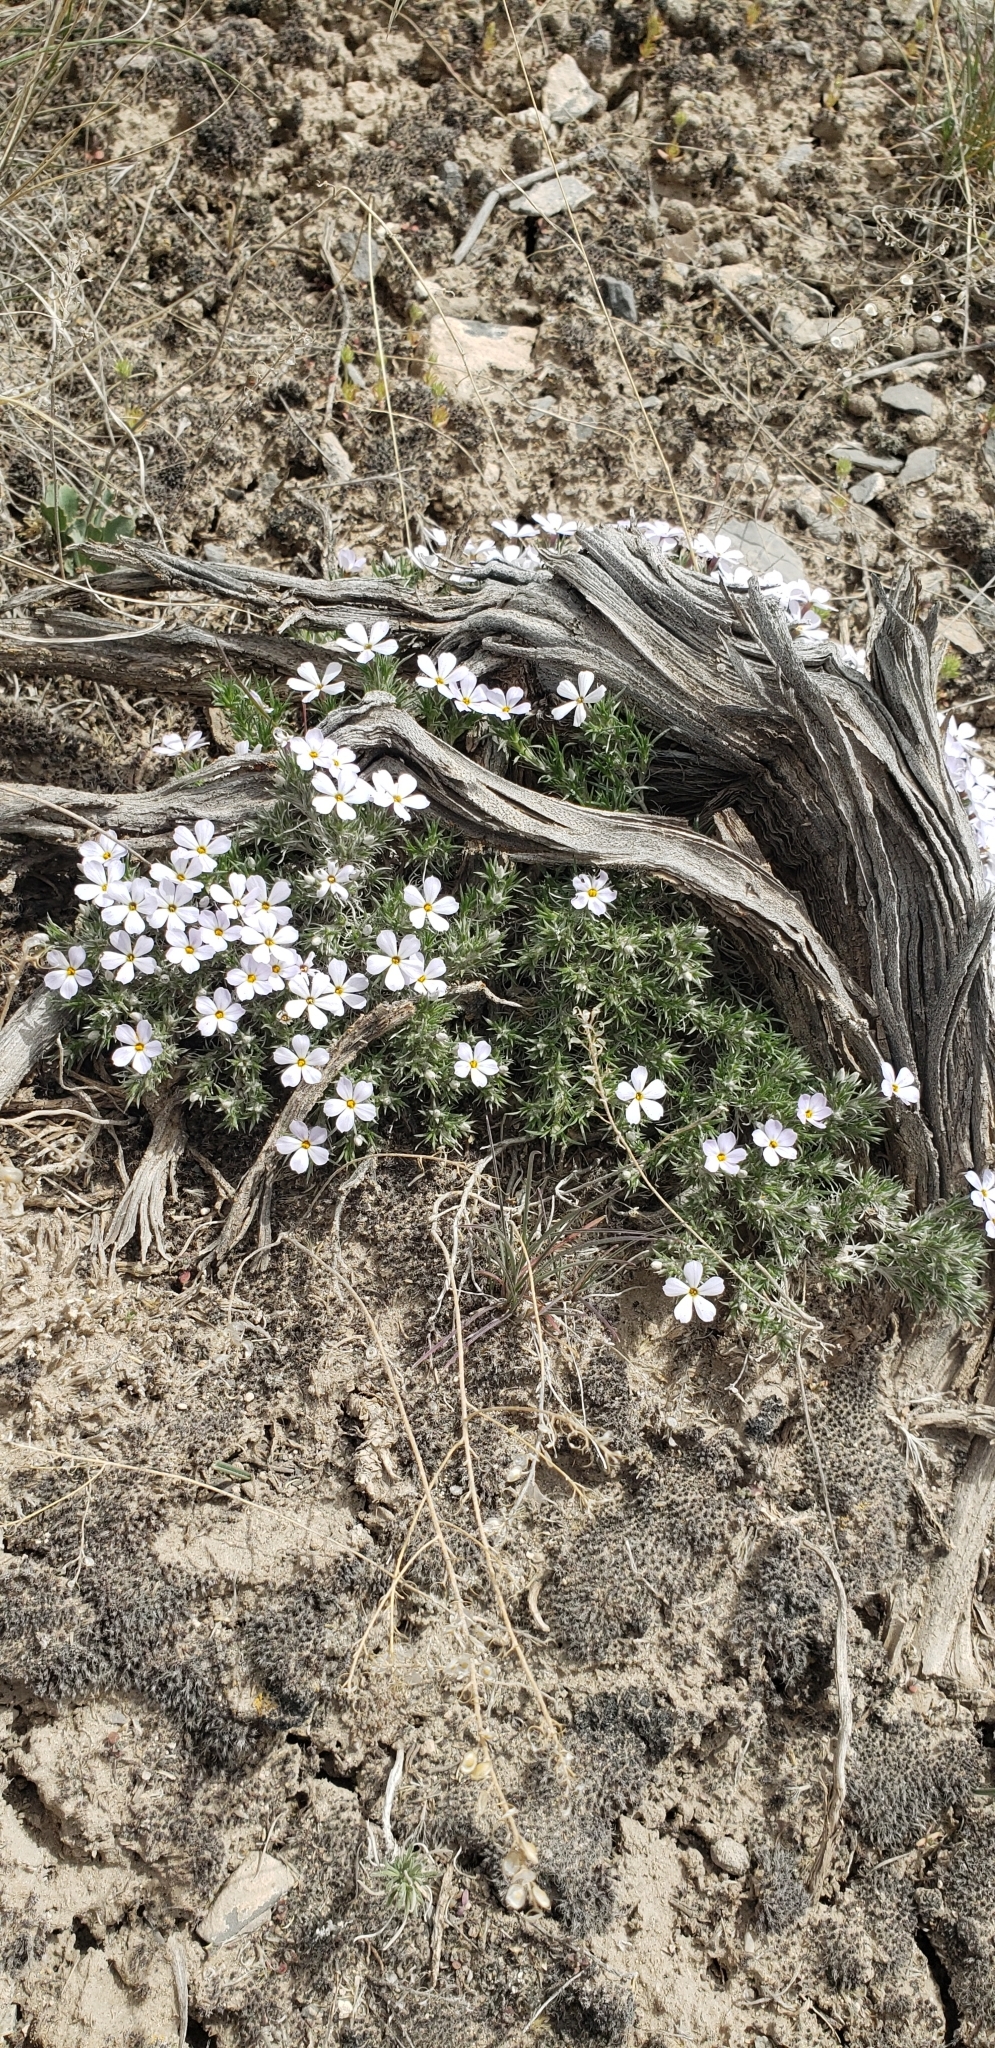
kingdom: Plantae
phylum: Tracheophyta
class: Magnoliopsida
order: Ericales
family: Polemoniaceae
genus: Phlox
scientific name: Phlox hoodii
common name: Moss phlox
